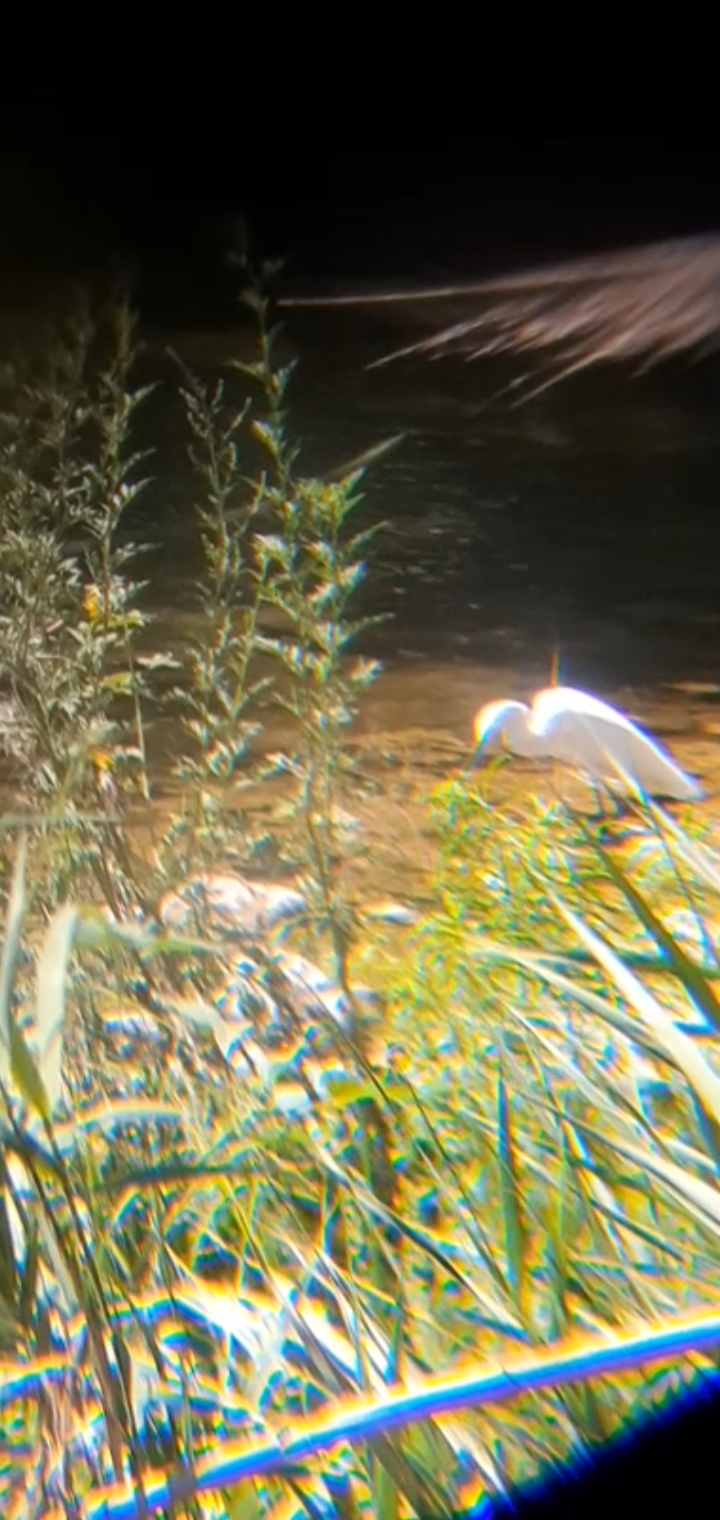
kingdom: Animalia
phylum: Chordata
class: Aves
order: Pelecaniformes
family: Ardeidae
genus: Egretta
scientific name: Egretta thula
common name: Snowy egret
